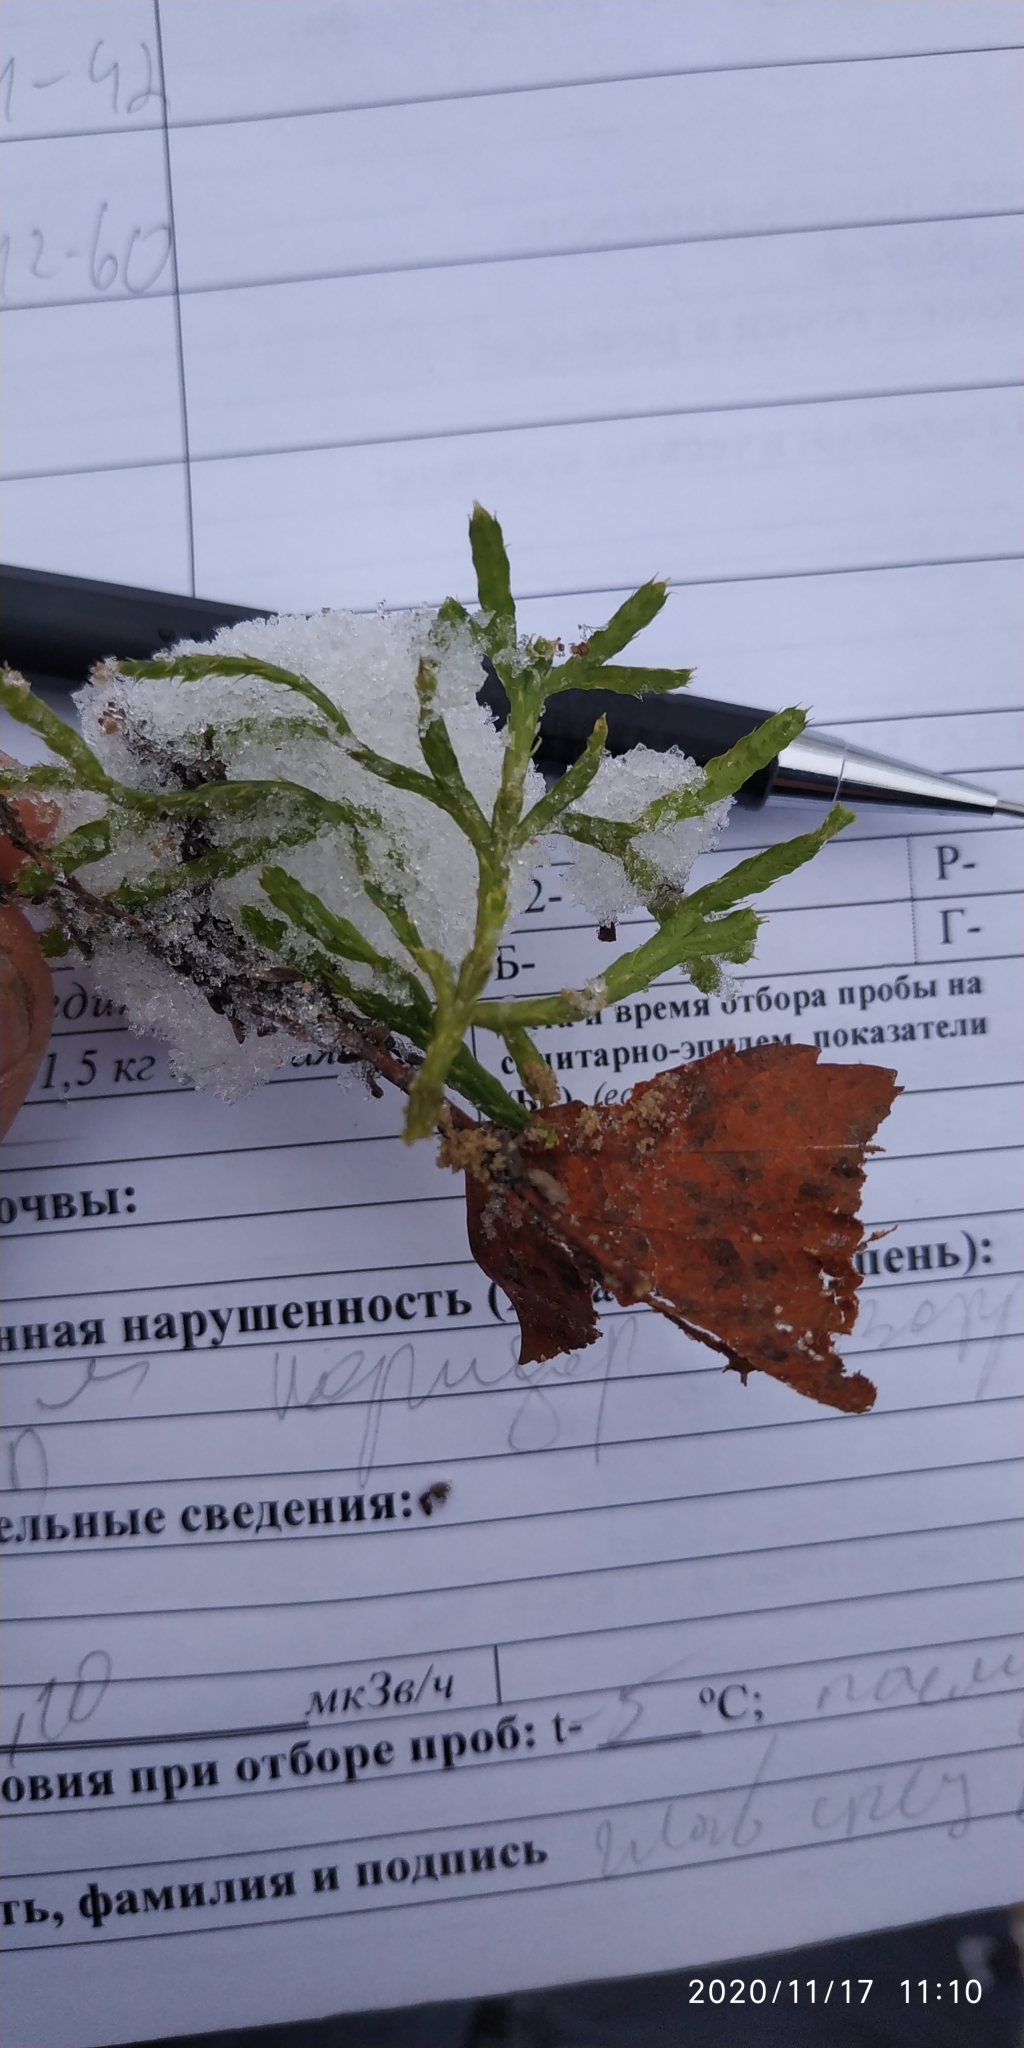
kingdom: Plantae
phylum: Tracheophyta
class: Lycopodiopsida
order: Lycopodiales
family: Lycopodiaceae
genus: Diphasiastrum
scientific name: Diphasiastrum complanatum
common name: Northern running-pine
